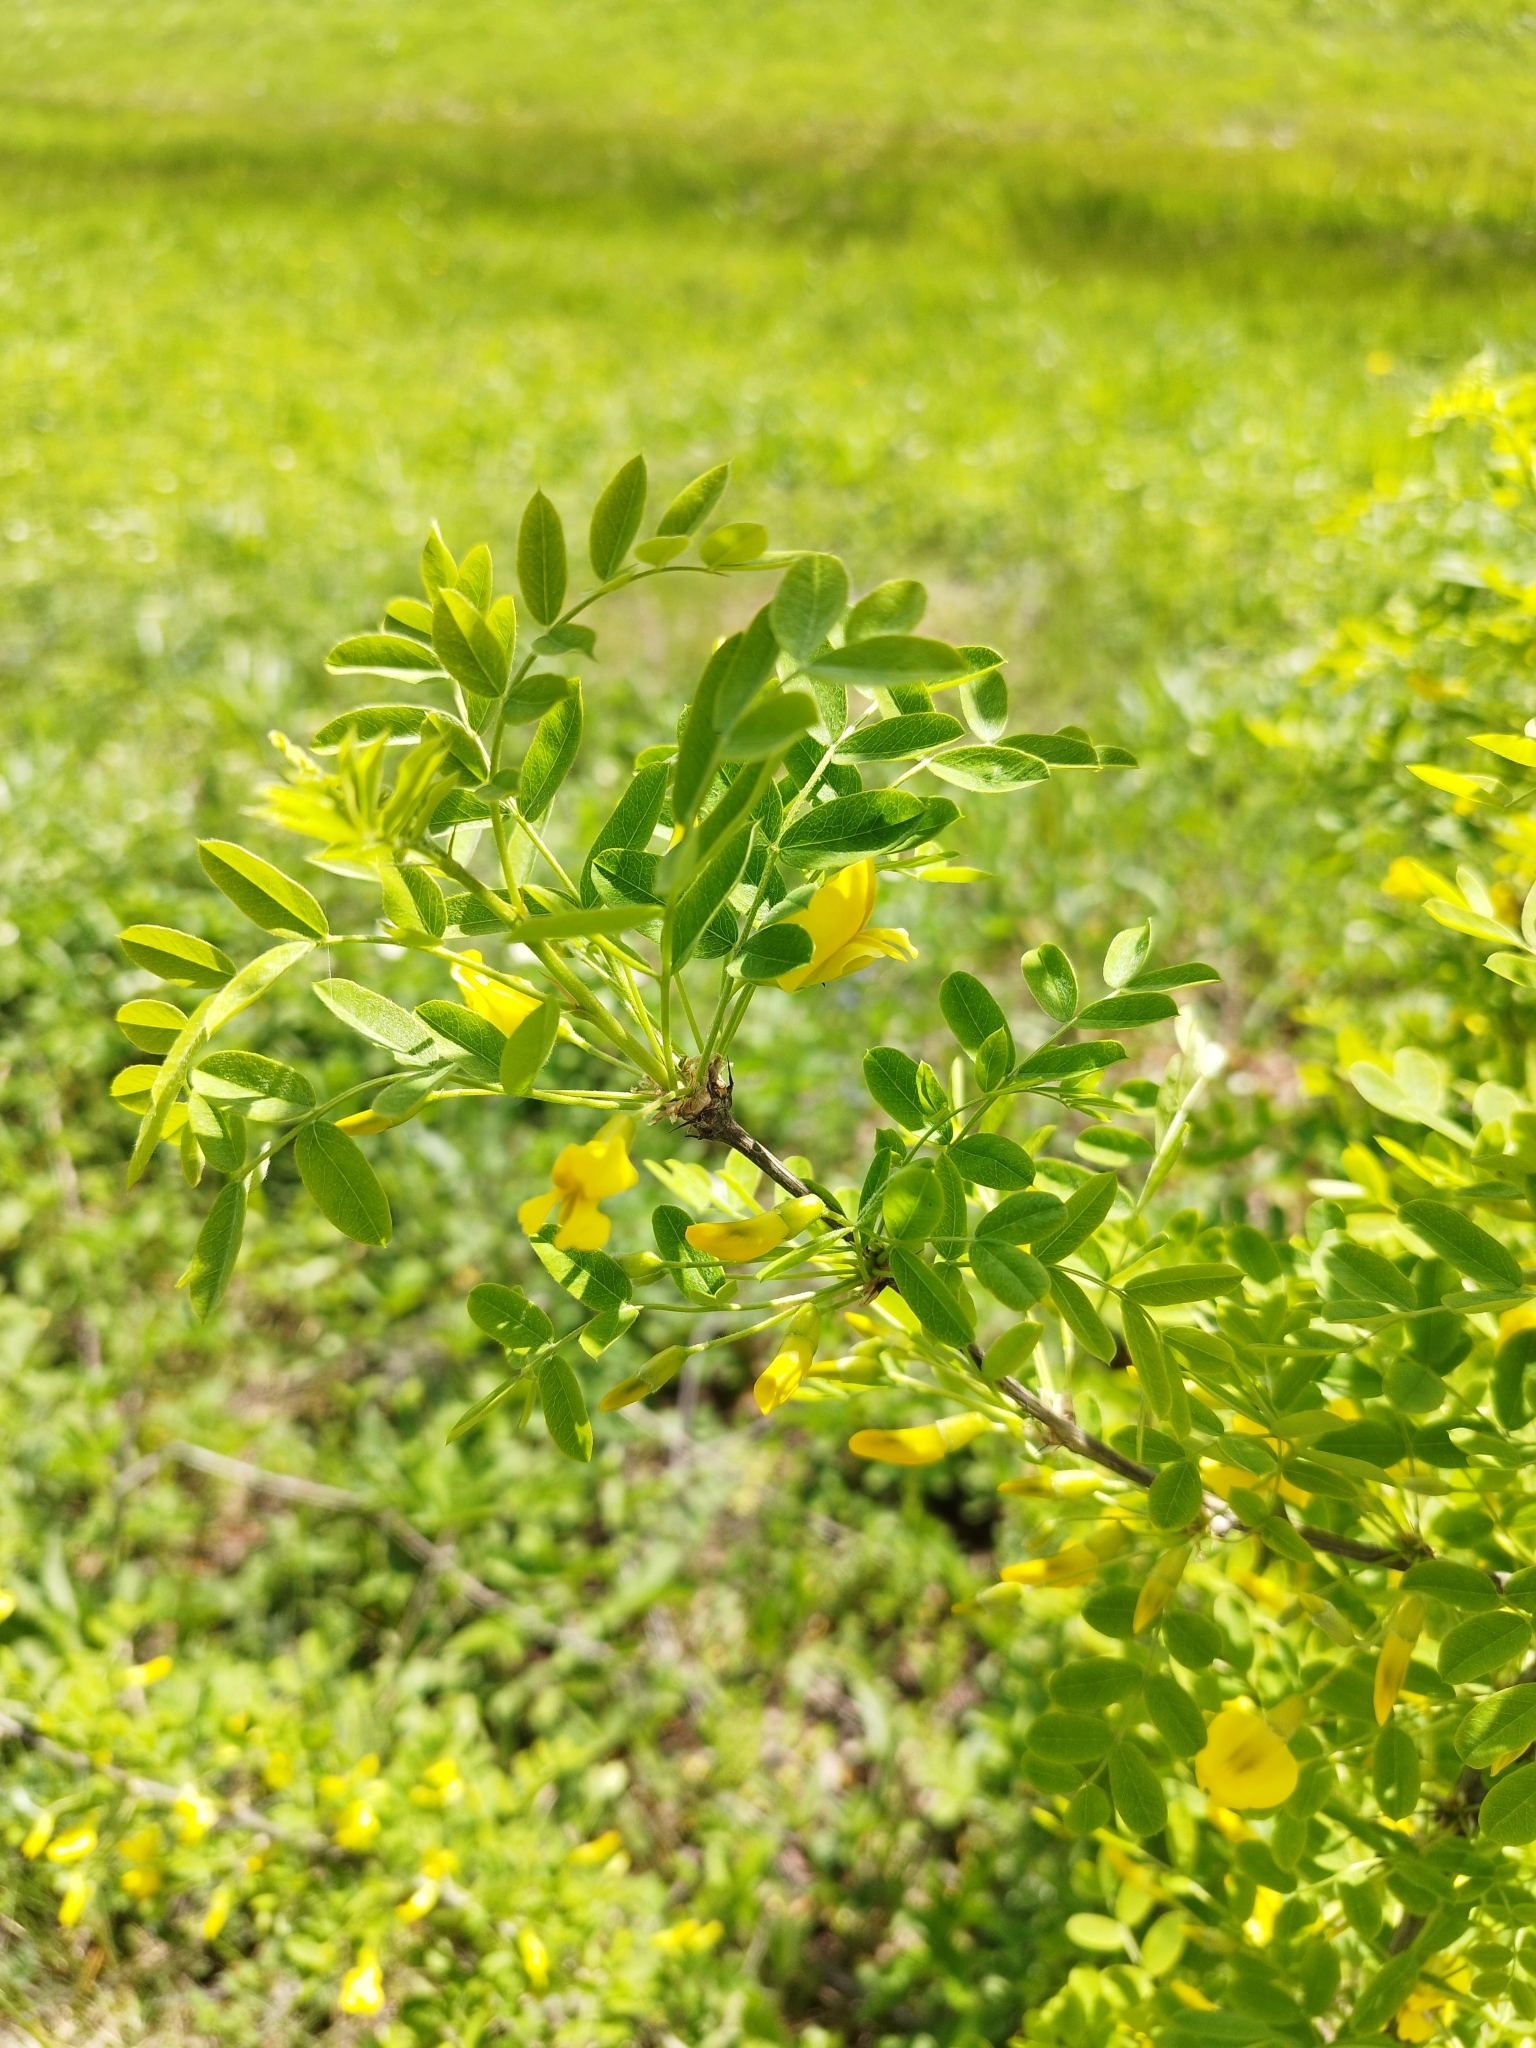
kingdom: Plantae
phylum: Tracheophyta
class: Magnoliopsida
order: Fabales
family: Fabaceae
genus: Caragana
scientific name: Caragana arborescens
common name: Siberian peashrub
